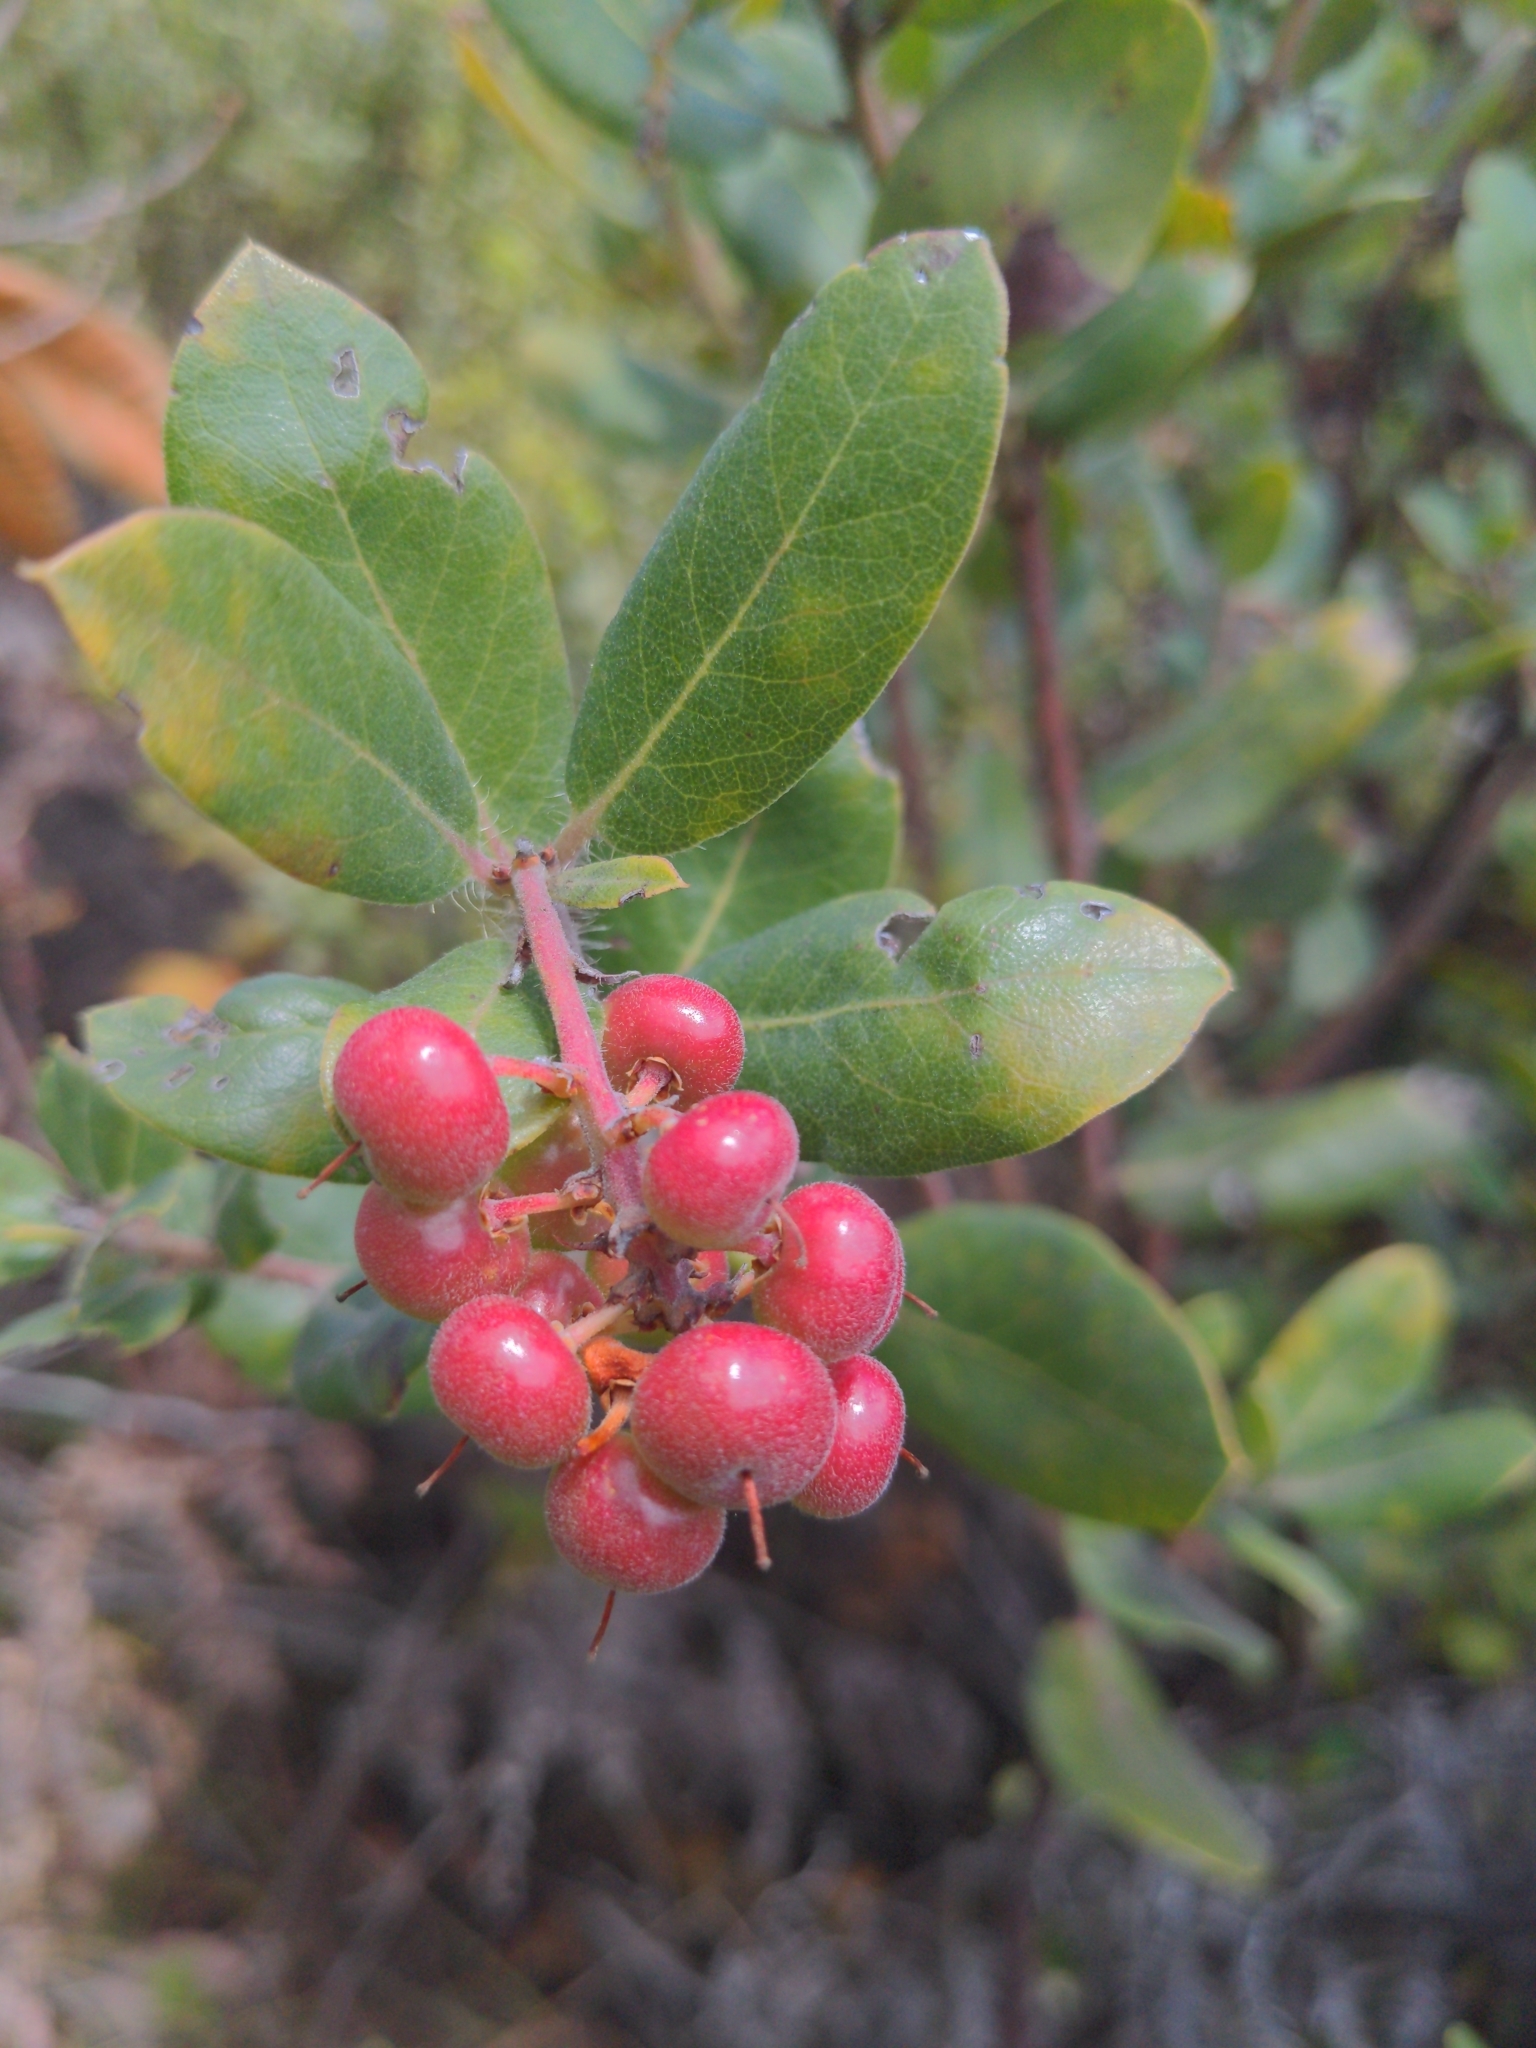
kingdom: Plantae
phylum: Tracheophyta
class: Magnoliopsida
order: Ericales
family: Ericaceae
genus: Arctostaphylos
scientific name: Arctostaphylos crustacea
